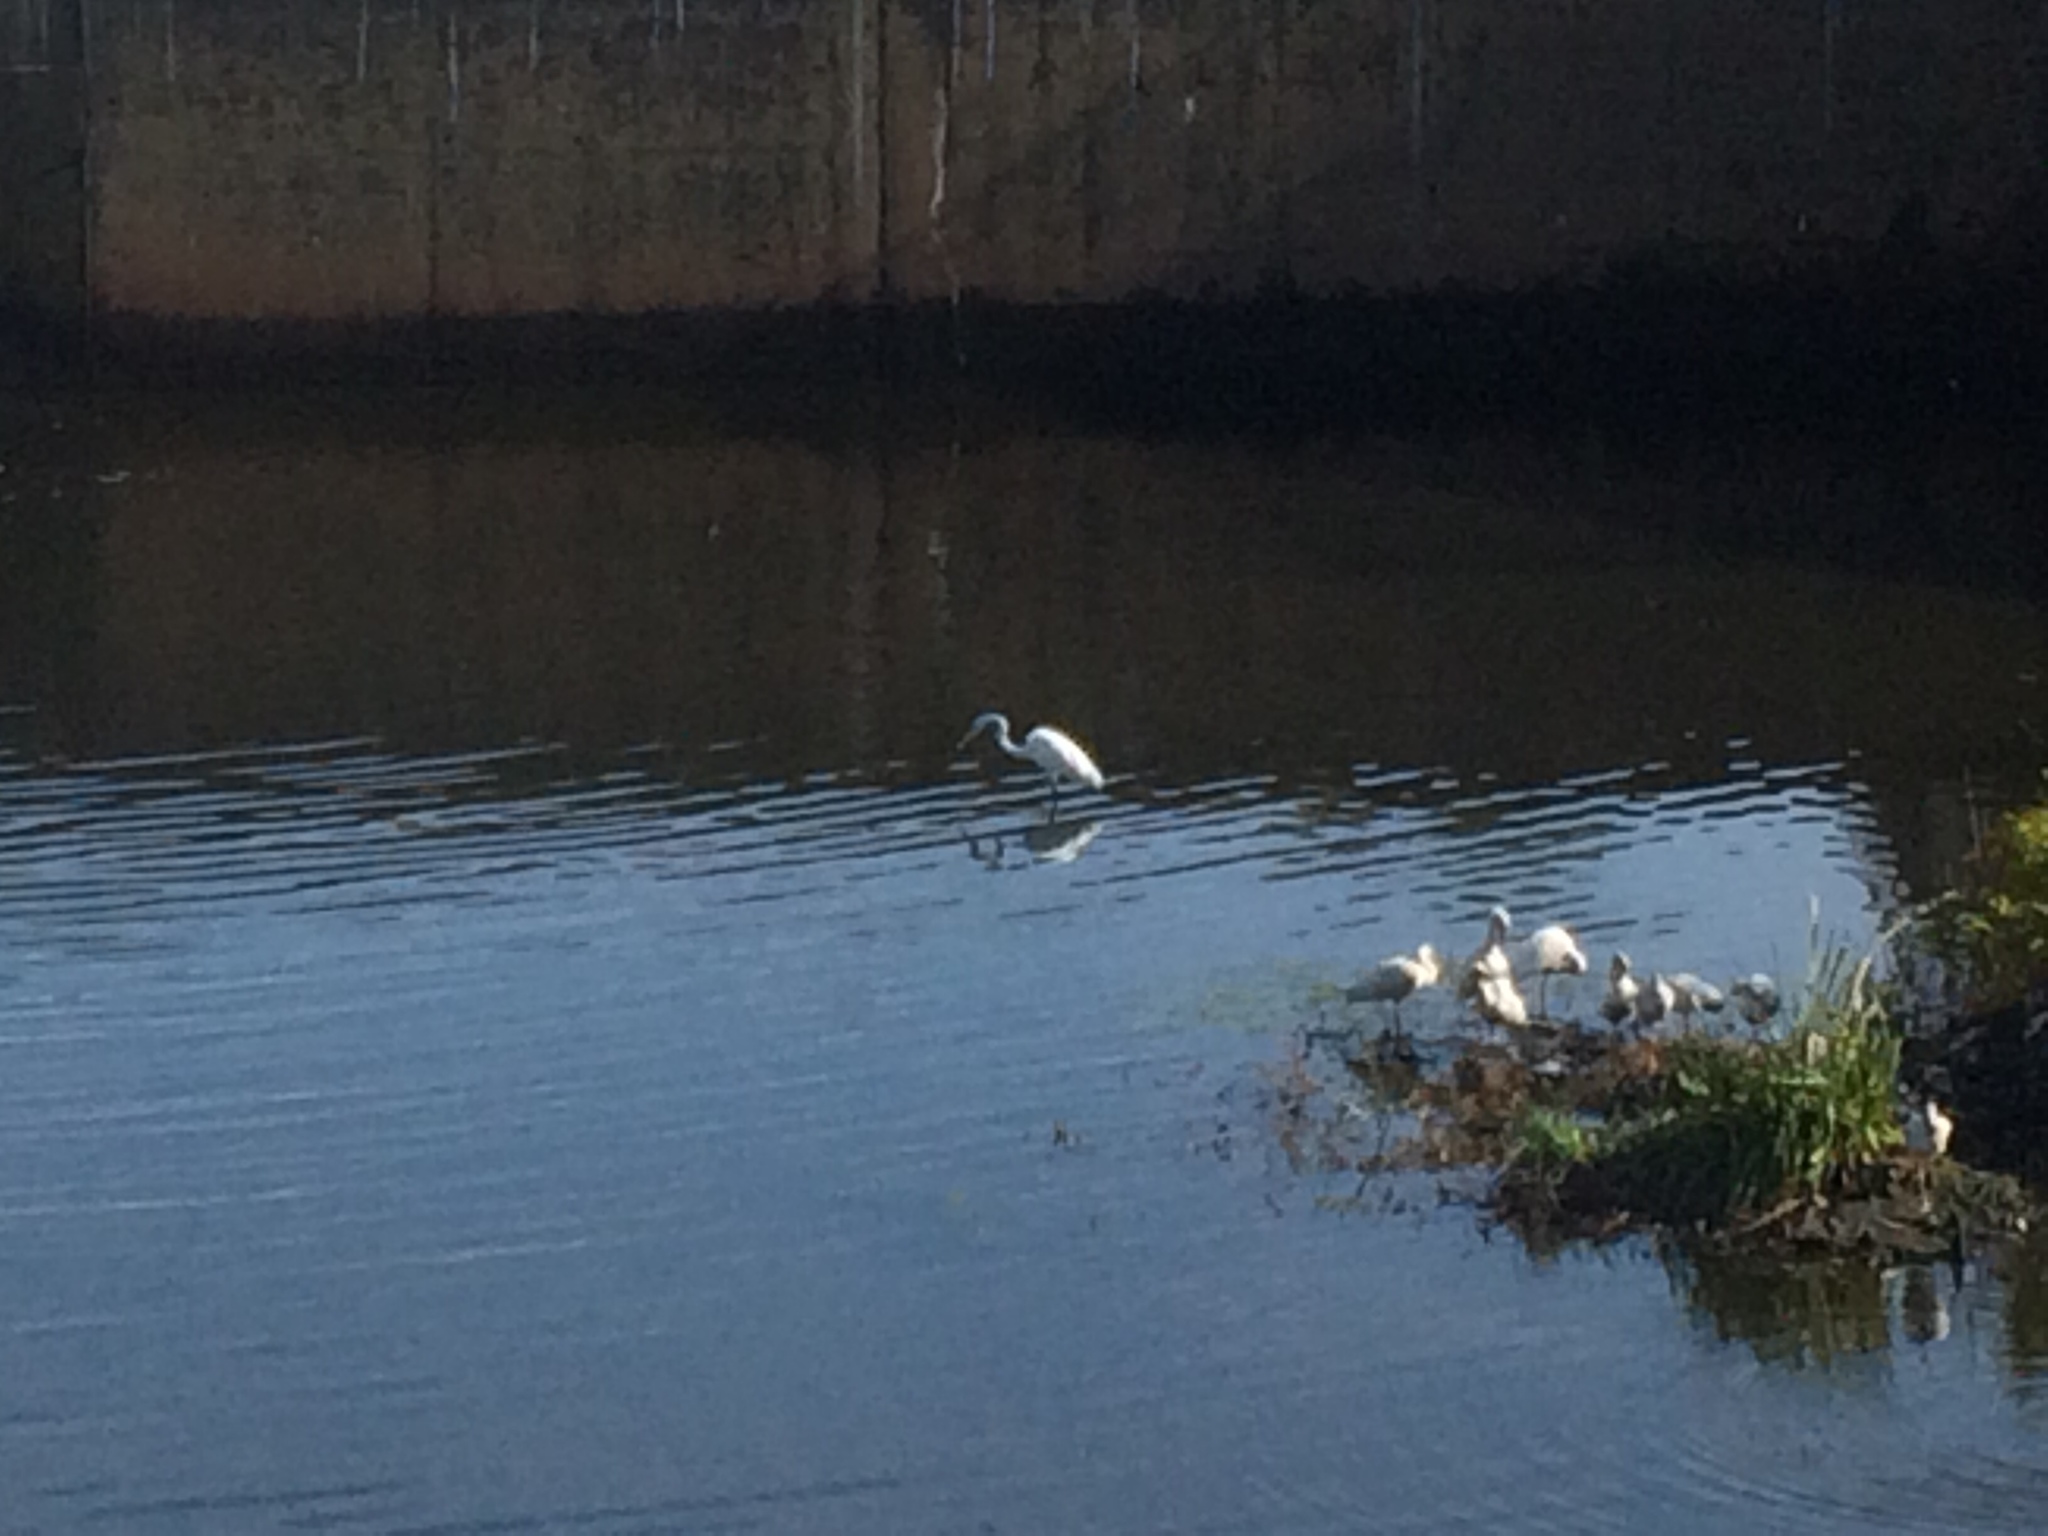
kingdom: Animalia
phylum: Chordata
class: Aves
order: Pelecaniformes
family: Ardeidae
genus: Ardea
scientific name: Ardea alba
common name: Great egret
